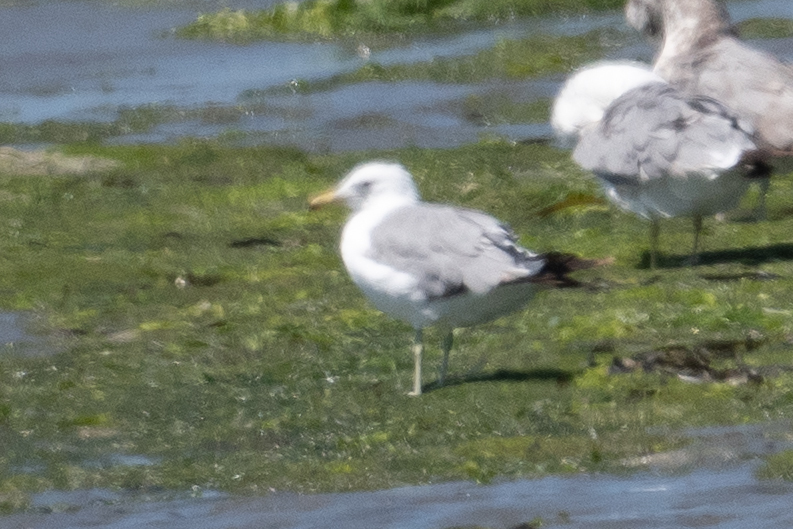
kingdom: Animalia
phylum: Chordata
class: Aves
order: Charadriiformes
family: Laridae
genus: Larus
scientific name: Larus californicus
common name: California gull
